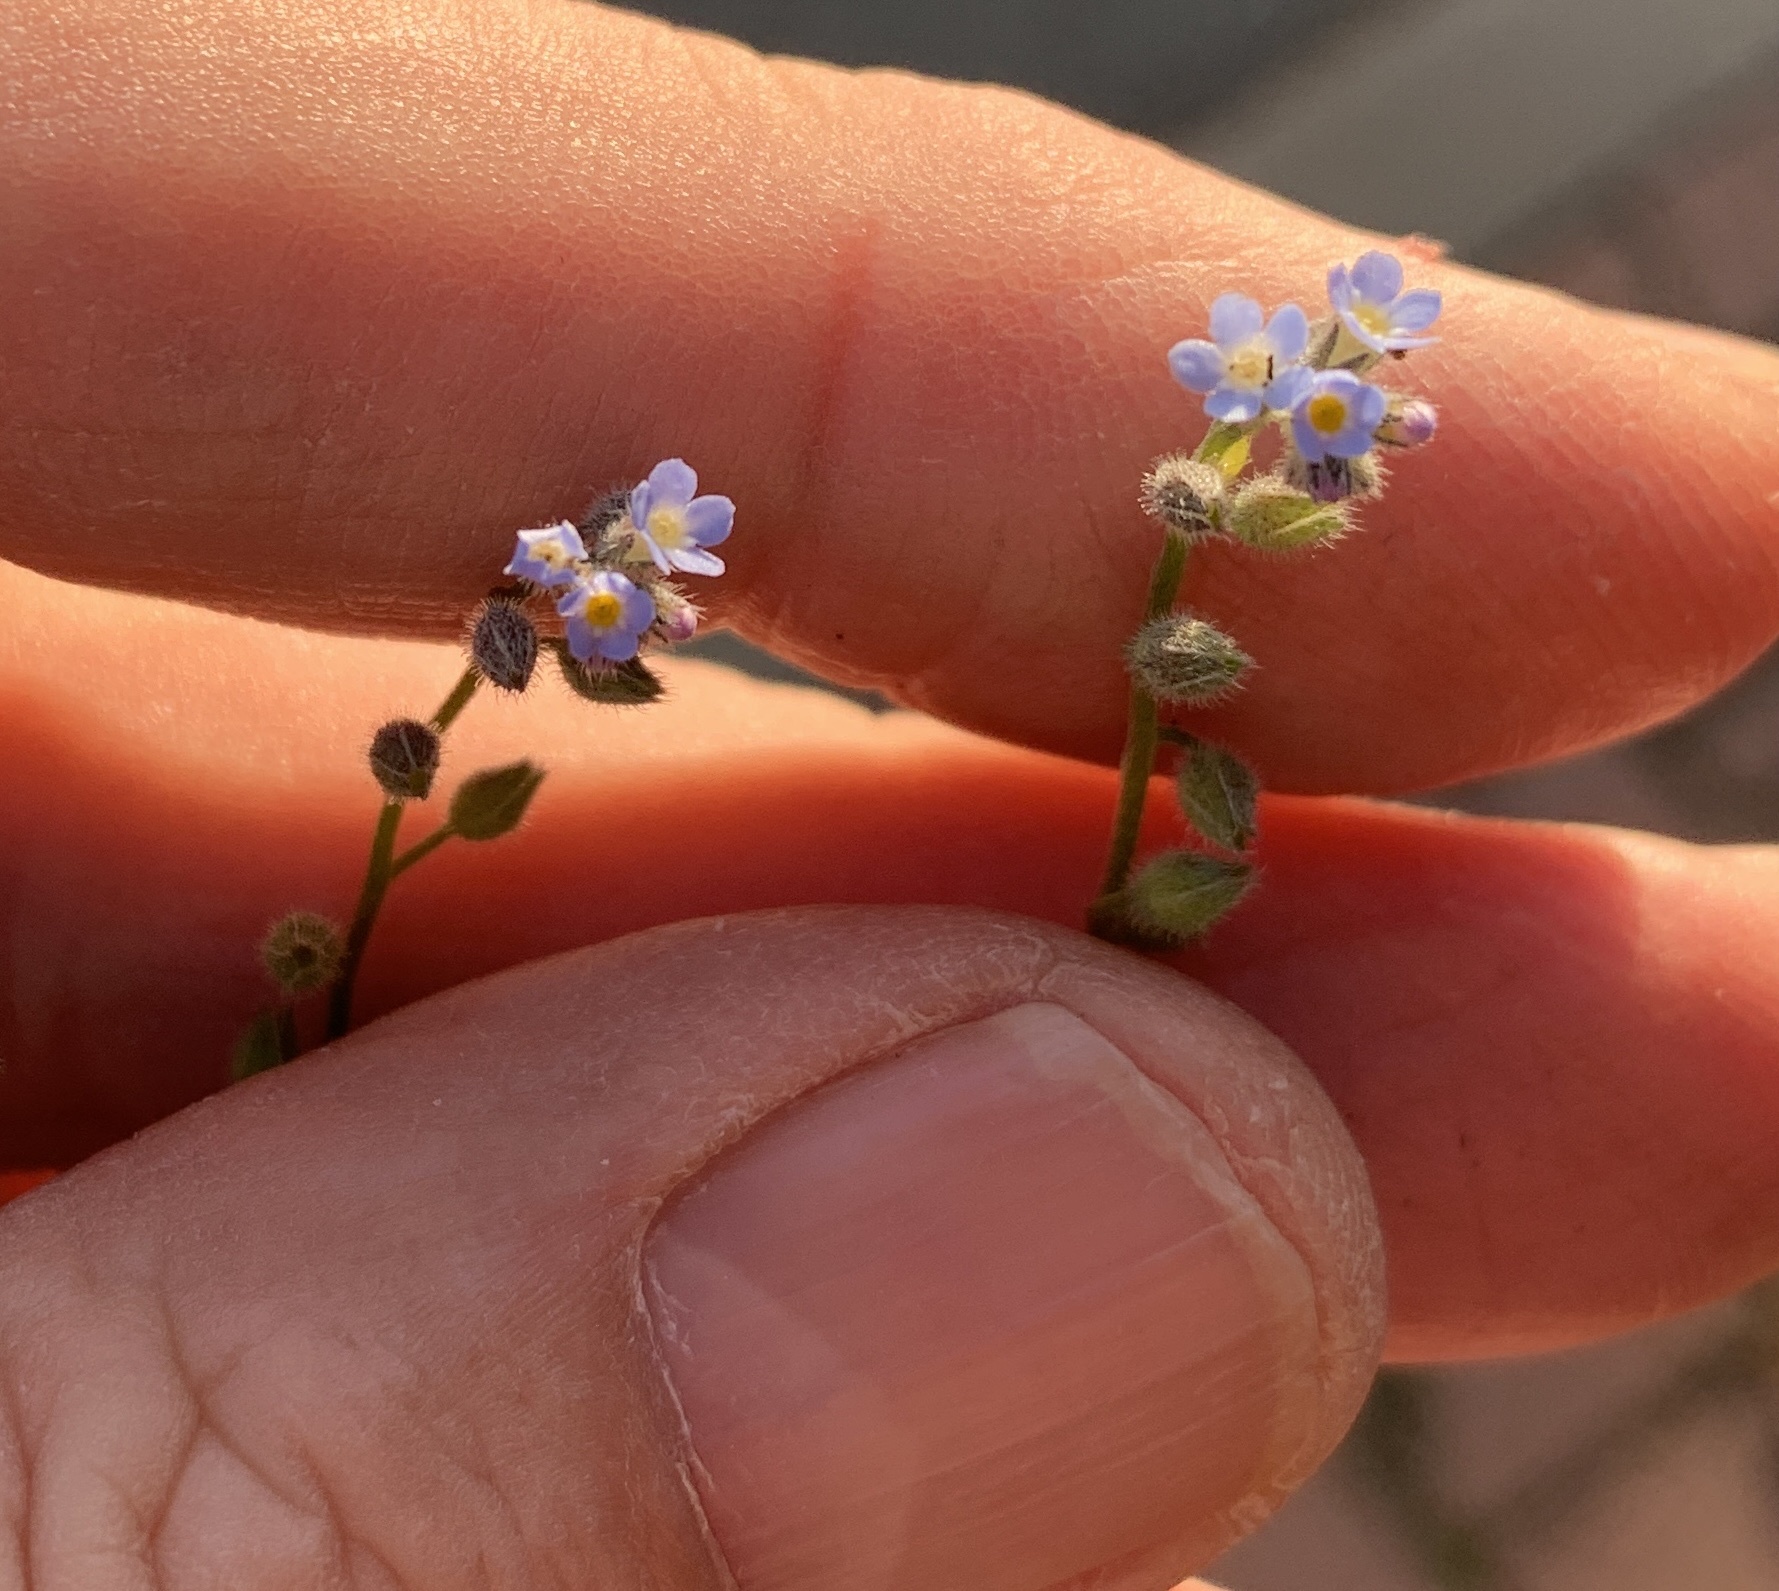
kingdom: Plantae
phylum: Tracheophyta
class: Magnoliopsida
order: Boraginales
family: Boraginaceae
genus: Myosotis
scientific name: Myosotis arvensis
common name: Field forget-me-not
